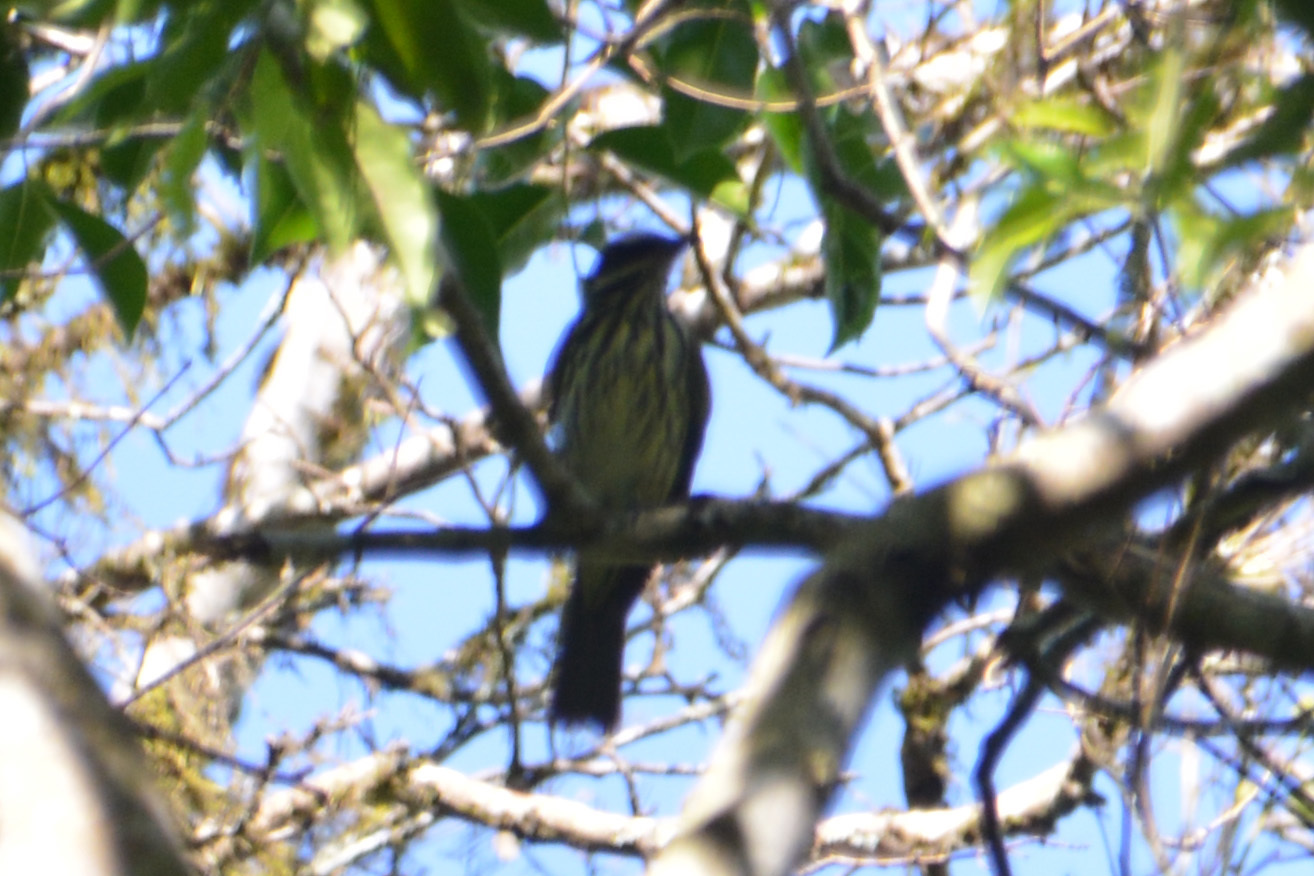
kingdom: Animalia
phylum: Chordata
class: Aves
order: Passeriformes
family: Tyrannidae
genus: Myiodynastes
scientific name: Myiodynastes maculatus
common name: Streaked flycatcher
